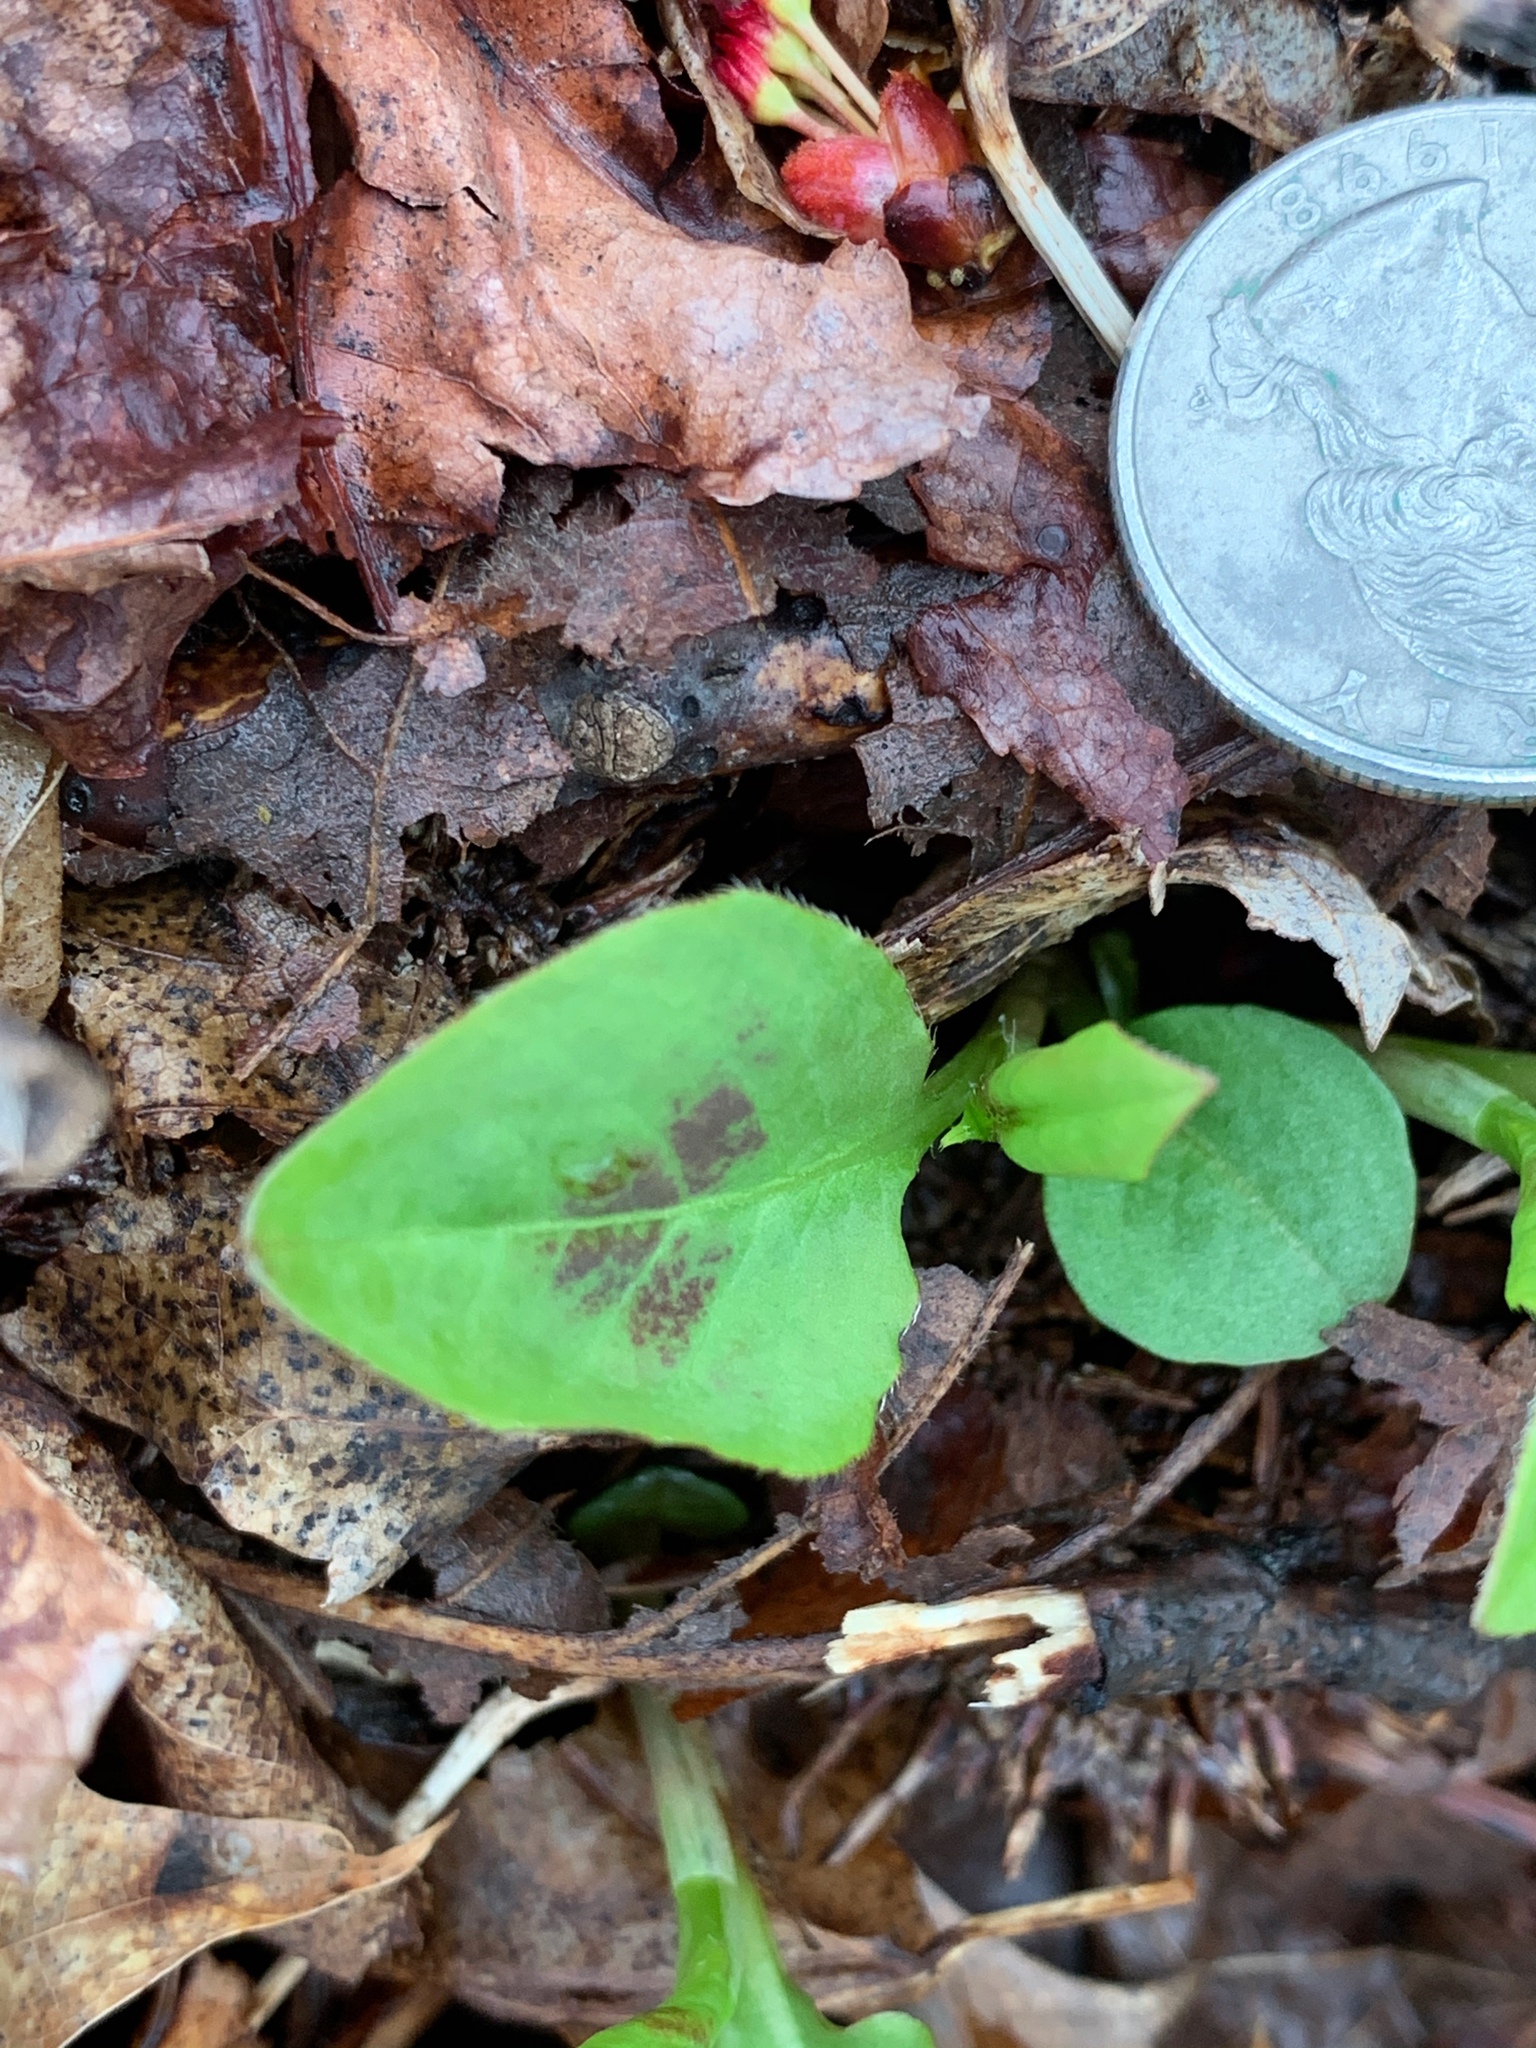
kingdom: Plantae
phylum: Tracheophyta
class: Magnoliopsida
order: Caryophyllales
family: Polygonaceae
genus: Persicaria
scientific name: Persicaria virginiana
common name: Jumpseed
